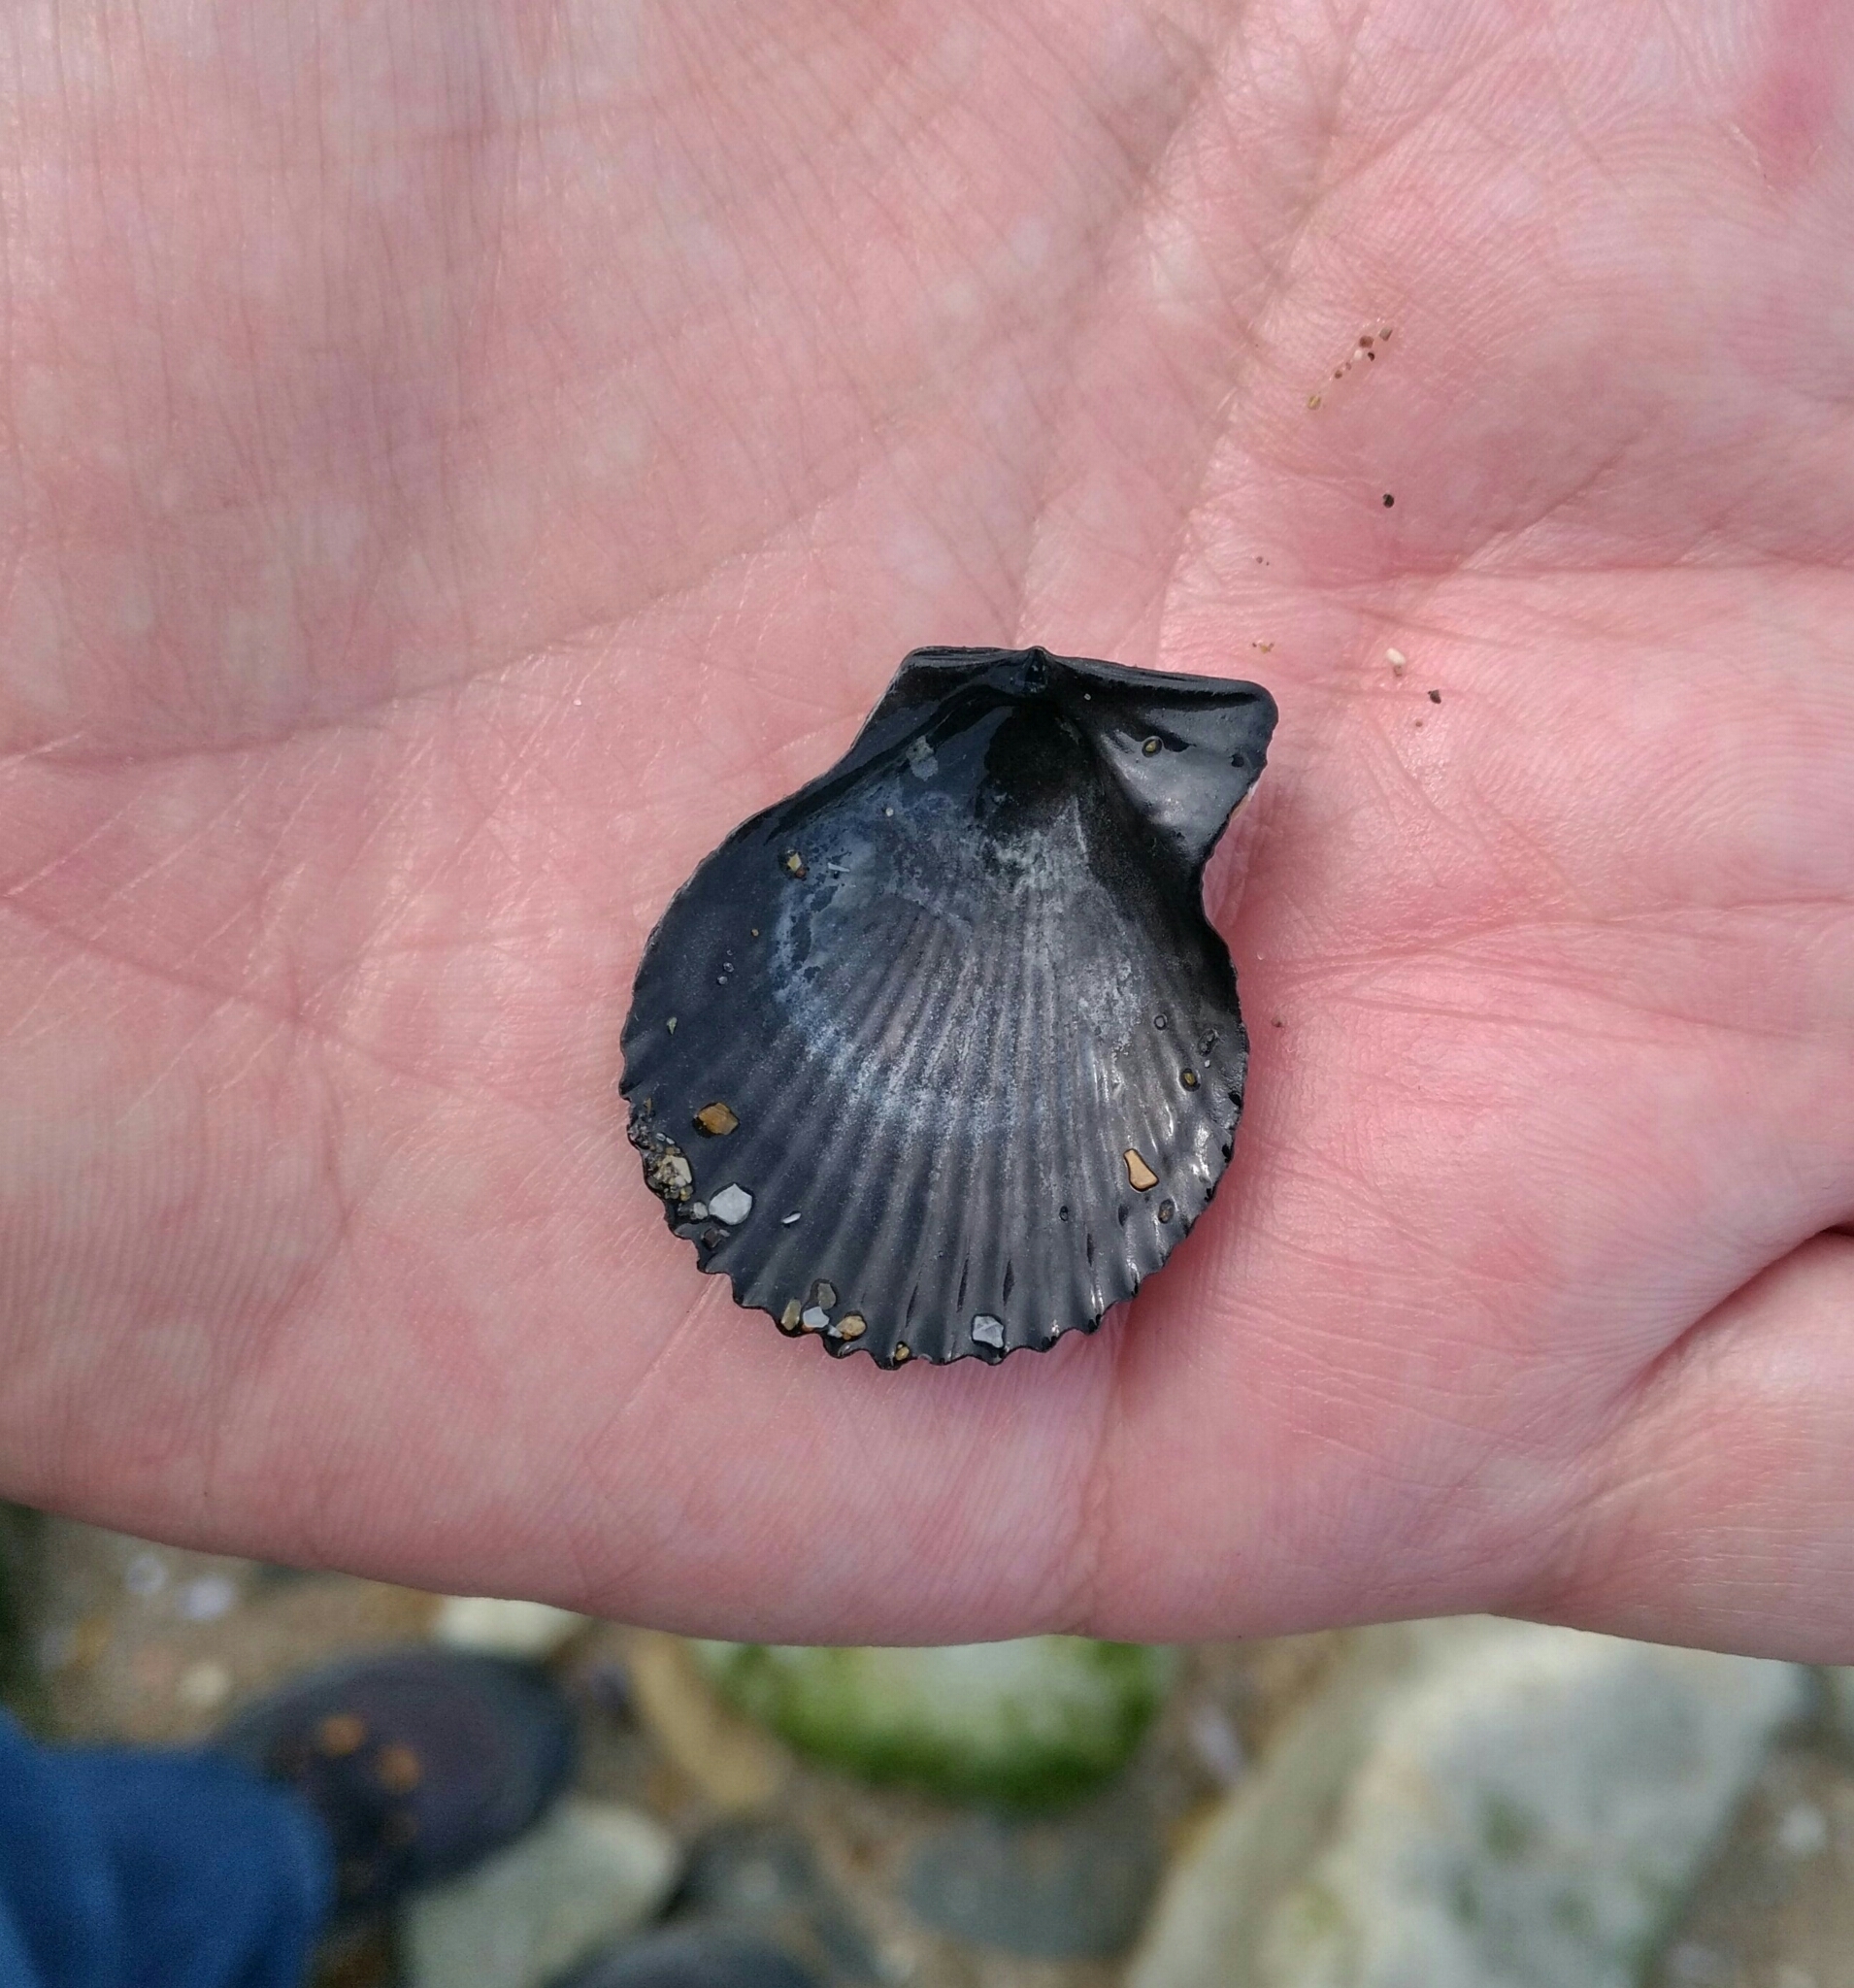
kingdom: Animalia
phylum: Mollusca
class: Bivalvia
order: Pectinida
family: Pectinidae
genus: Mimachlamys
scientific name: Mimachlamys varia
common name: Variegated scallop
